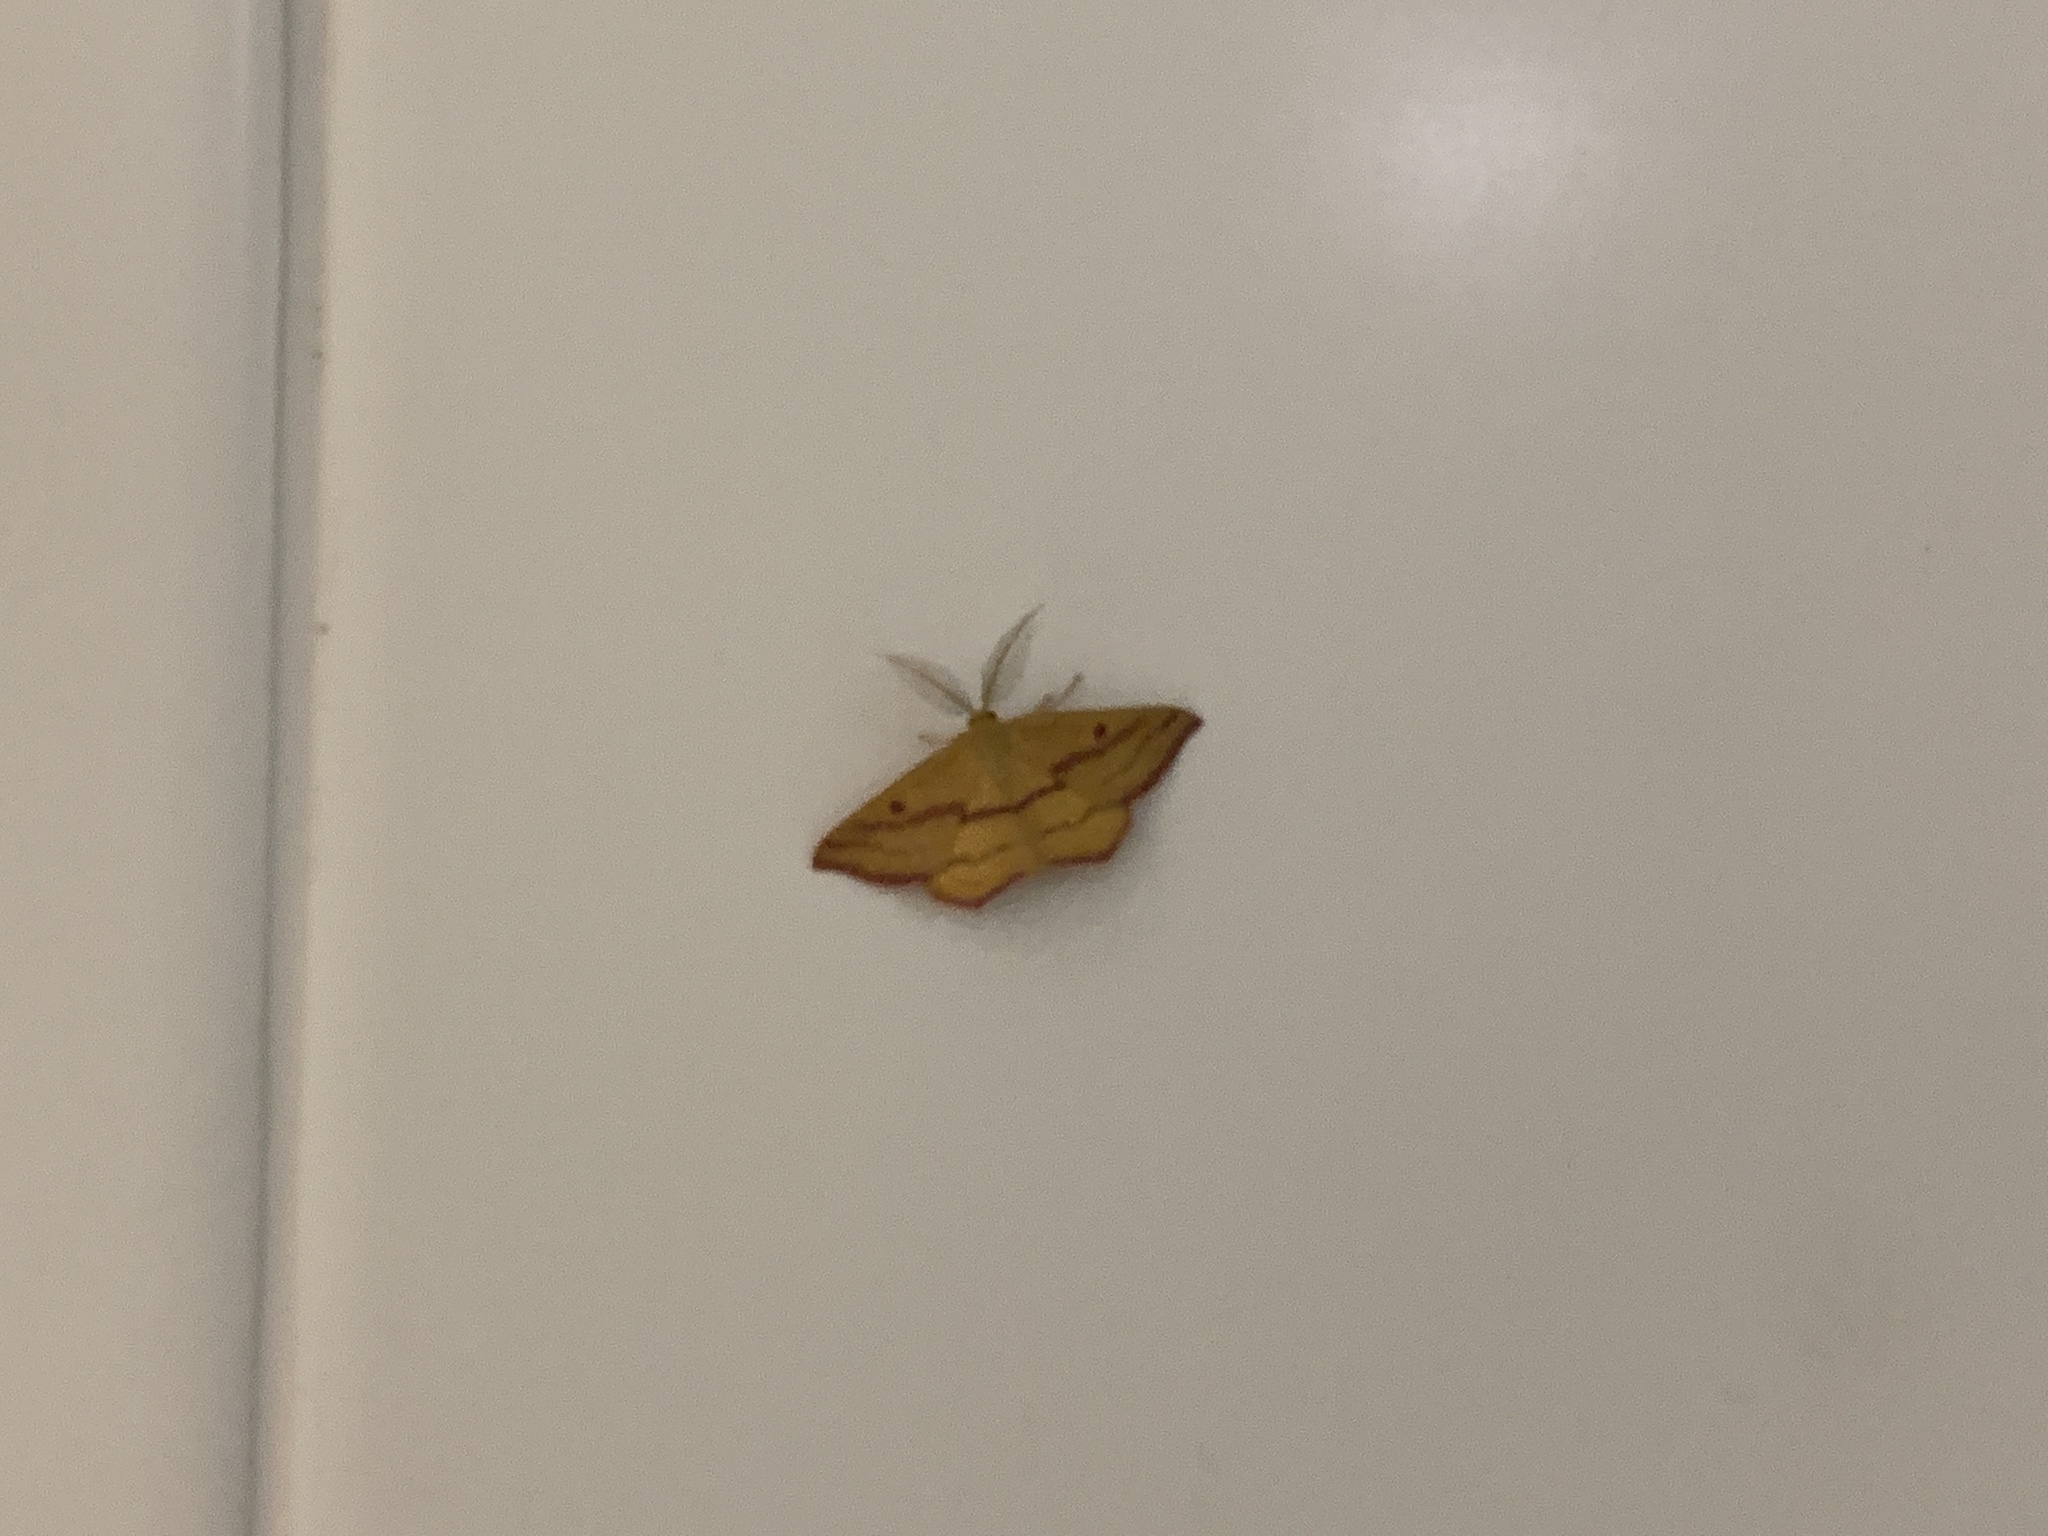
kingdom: Animalia
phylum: Arthropoda
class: Insecta
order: Lepidoptera
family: Geometridae
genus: Haematopis
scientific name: Haematopis grataria
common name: Chickweed geometer
